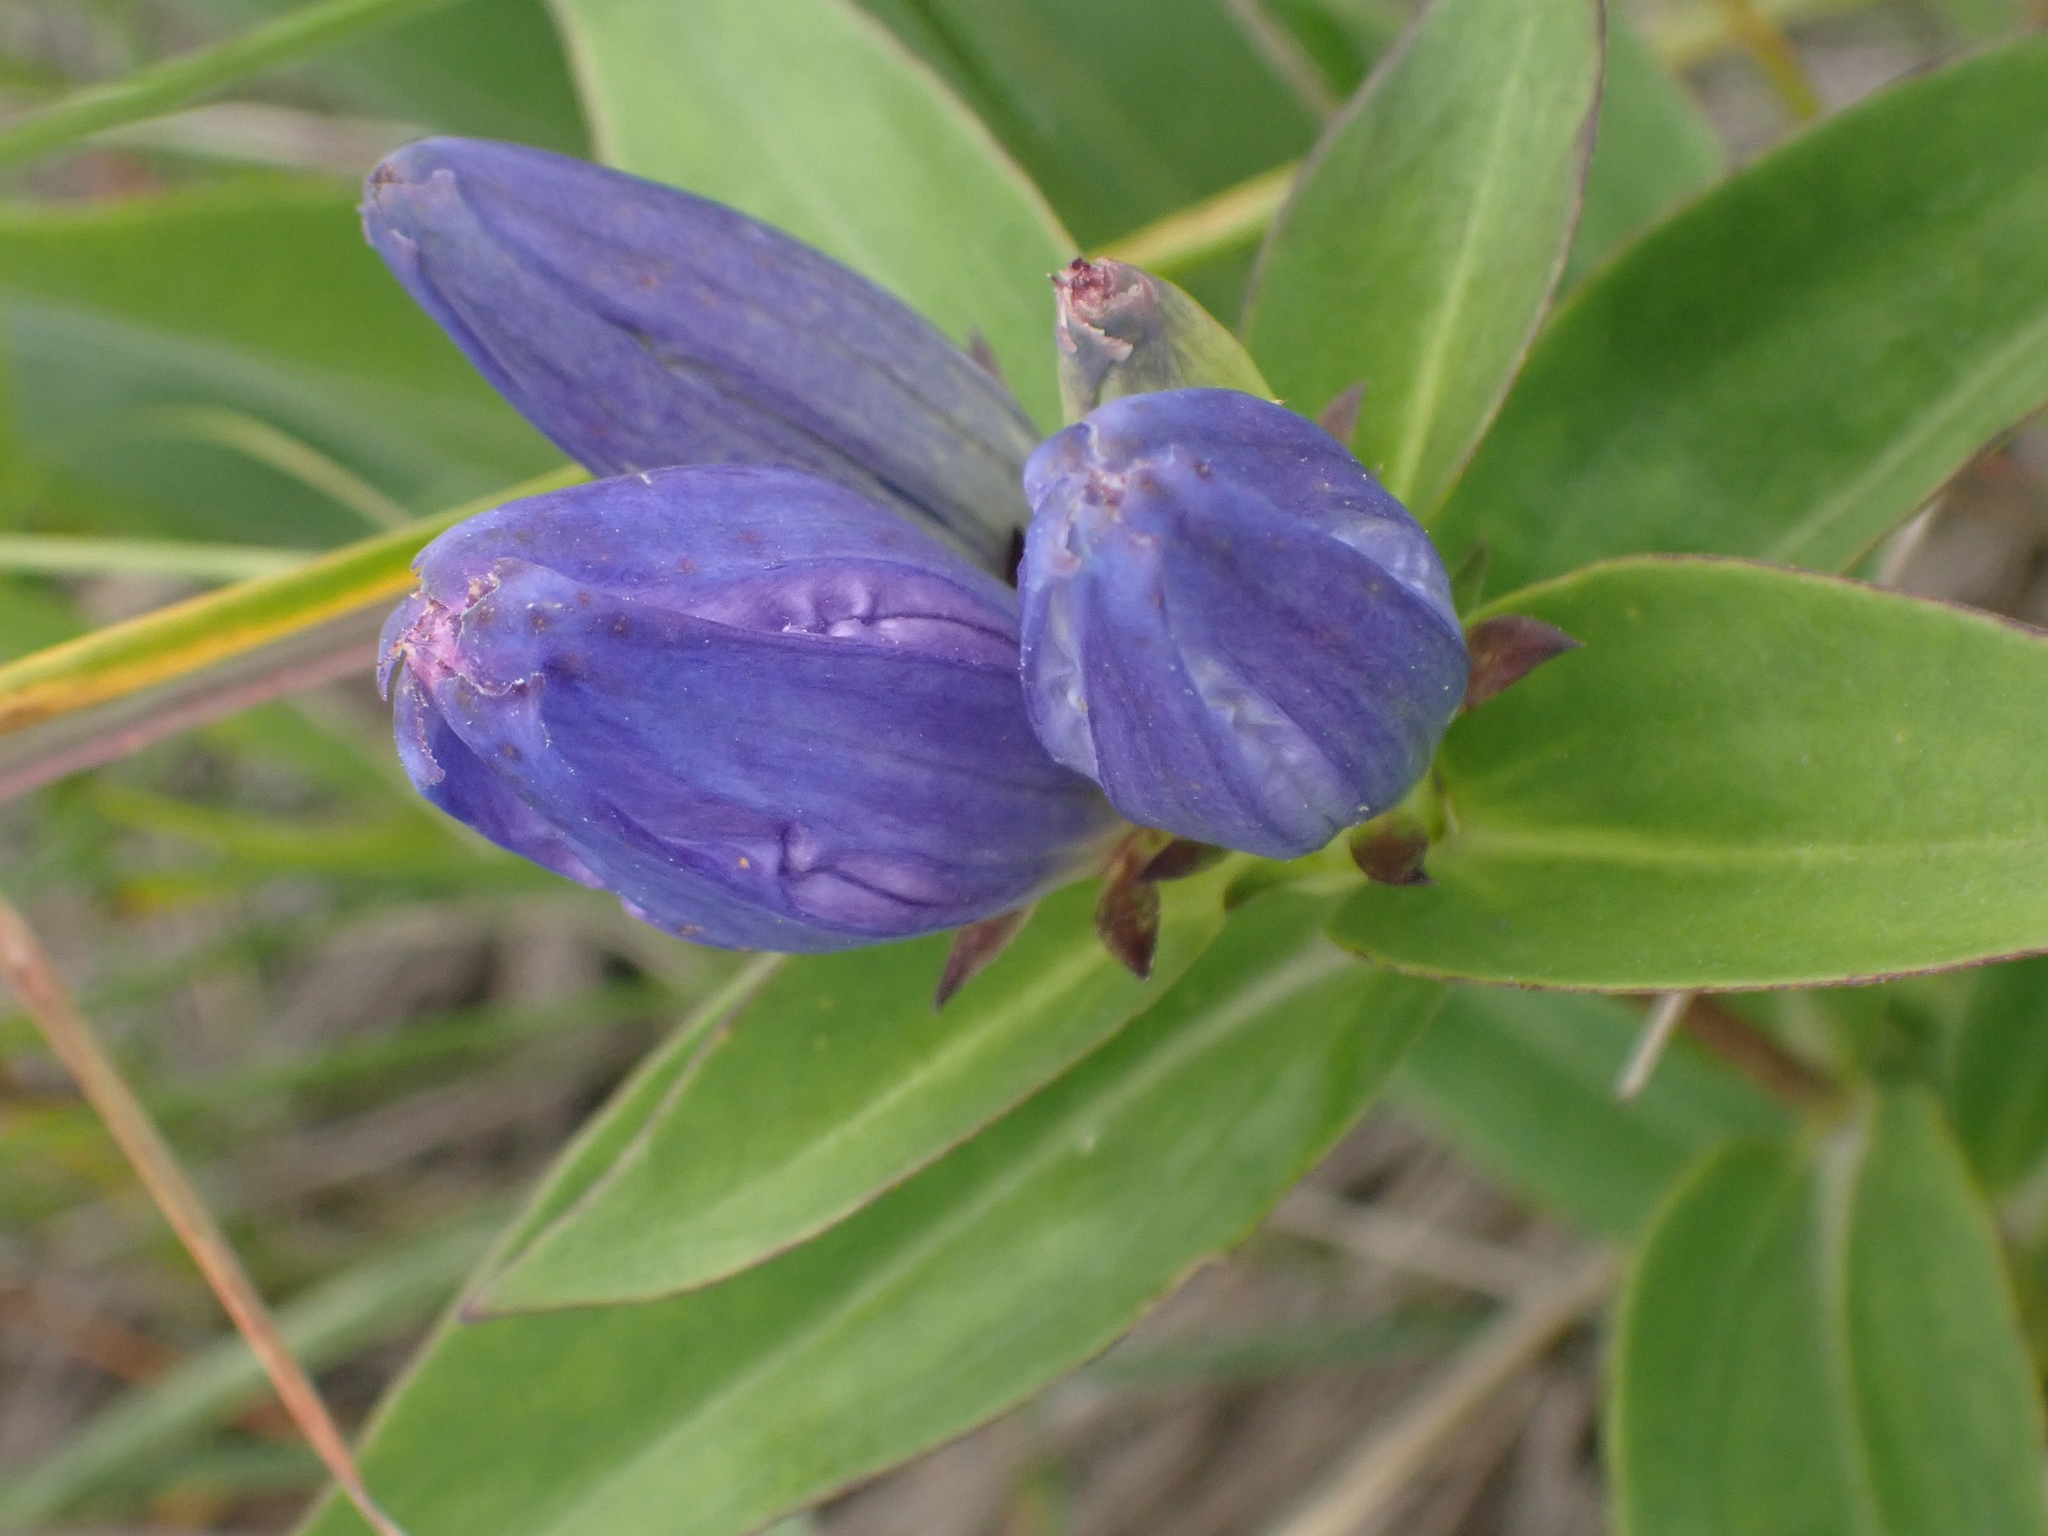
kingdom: Plantae
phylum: Tracheophyta
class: Magnoliopsida
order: Gentianales
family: Gentianaceae
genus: Gentiana
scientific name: Gentiana andrewsii
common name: Bottle gentian
